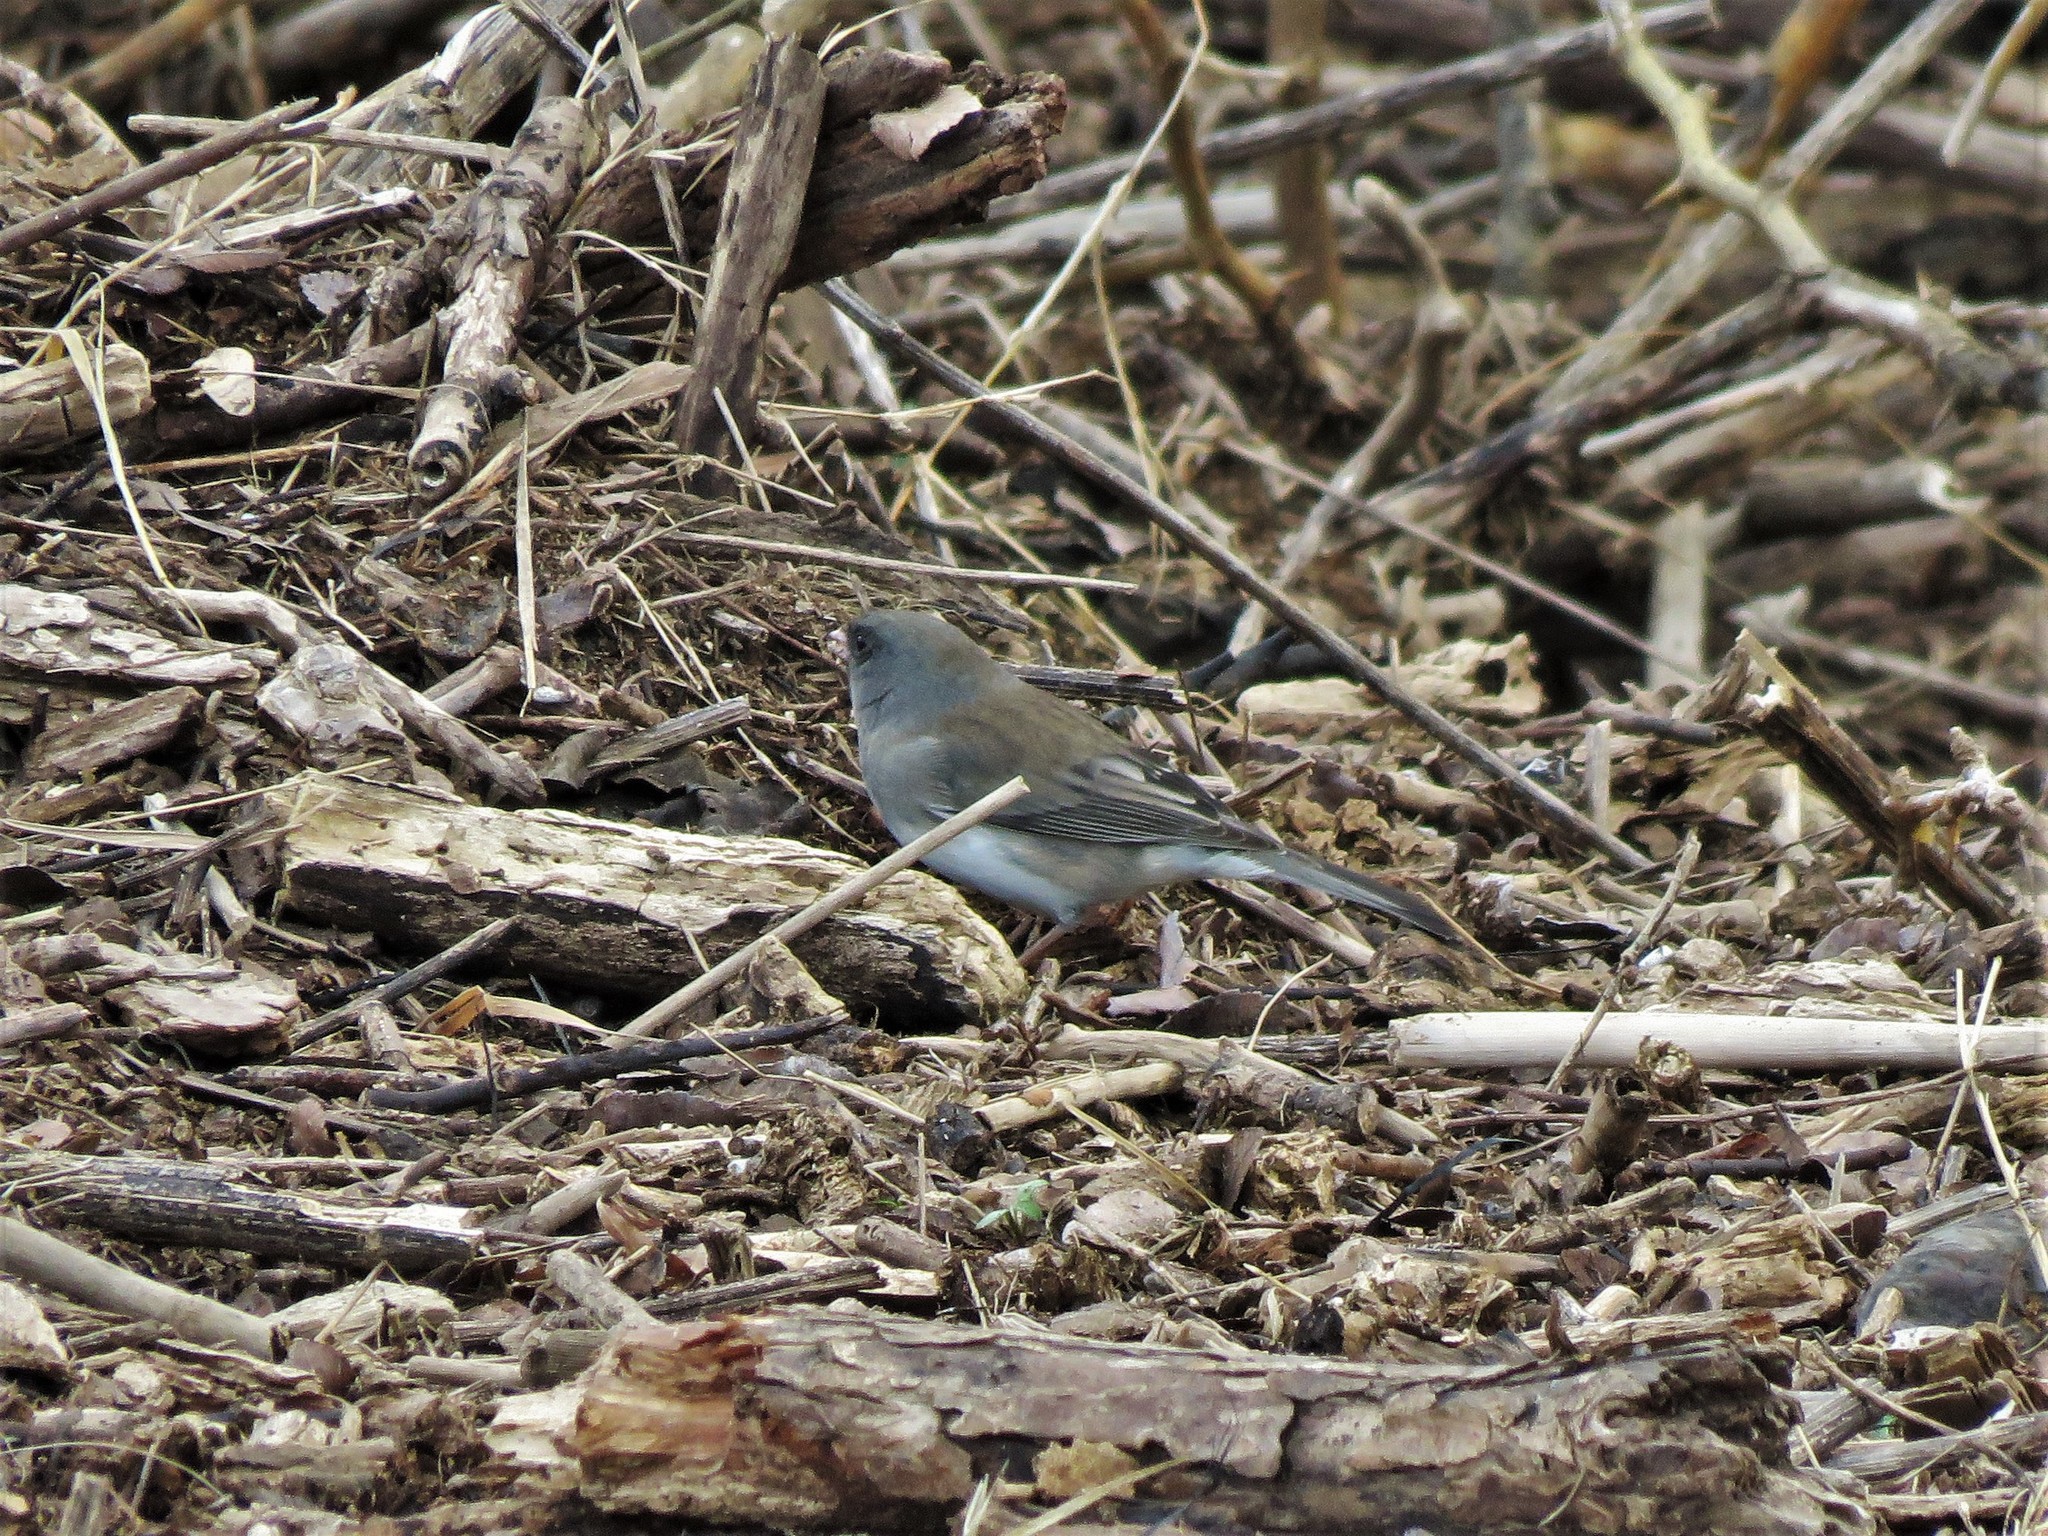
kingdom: Animalia
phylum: Chordata
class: Aves
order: Passeriformes
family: Passerellidae
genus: Junco
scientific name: Junco hyemalis
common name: Dark-eyed junco
